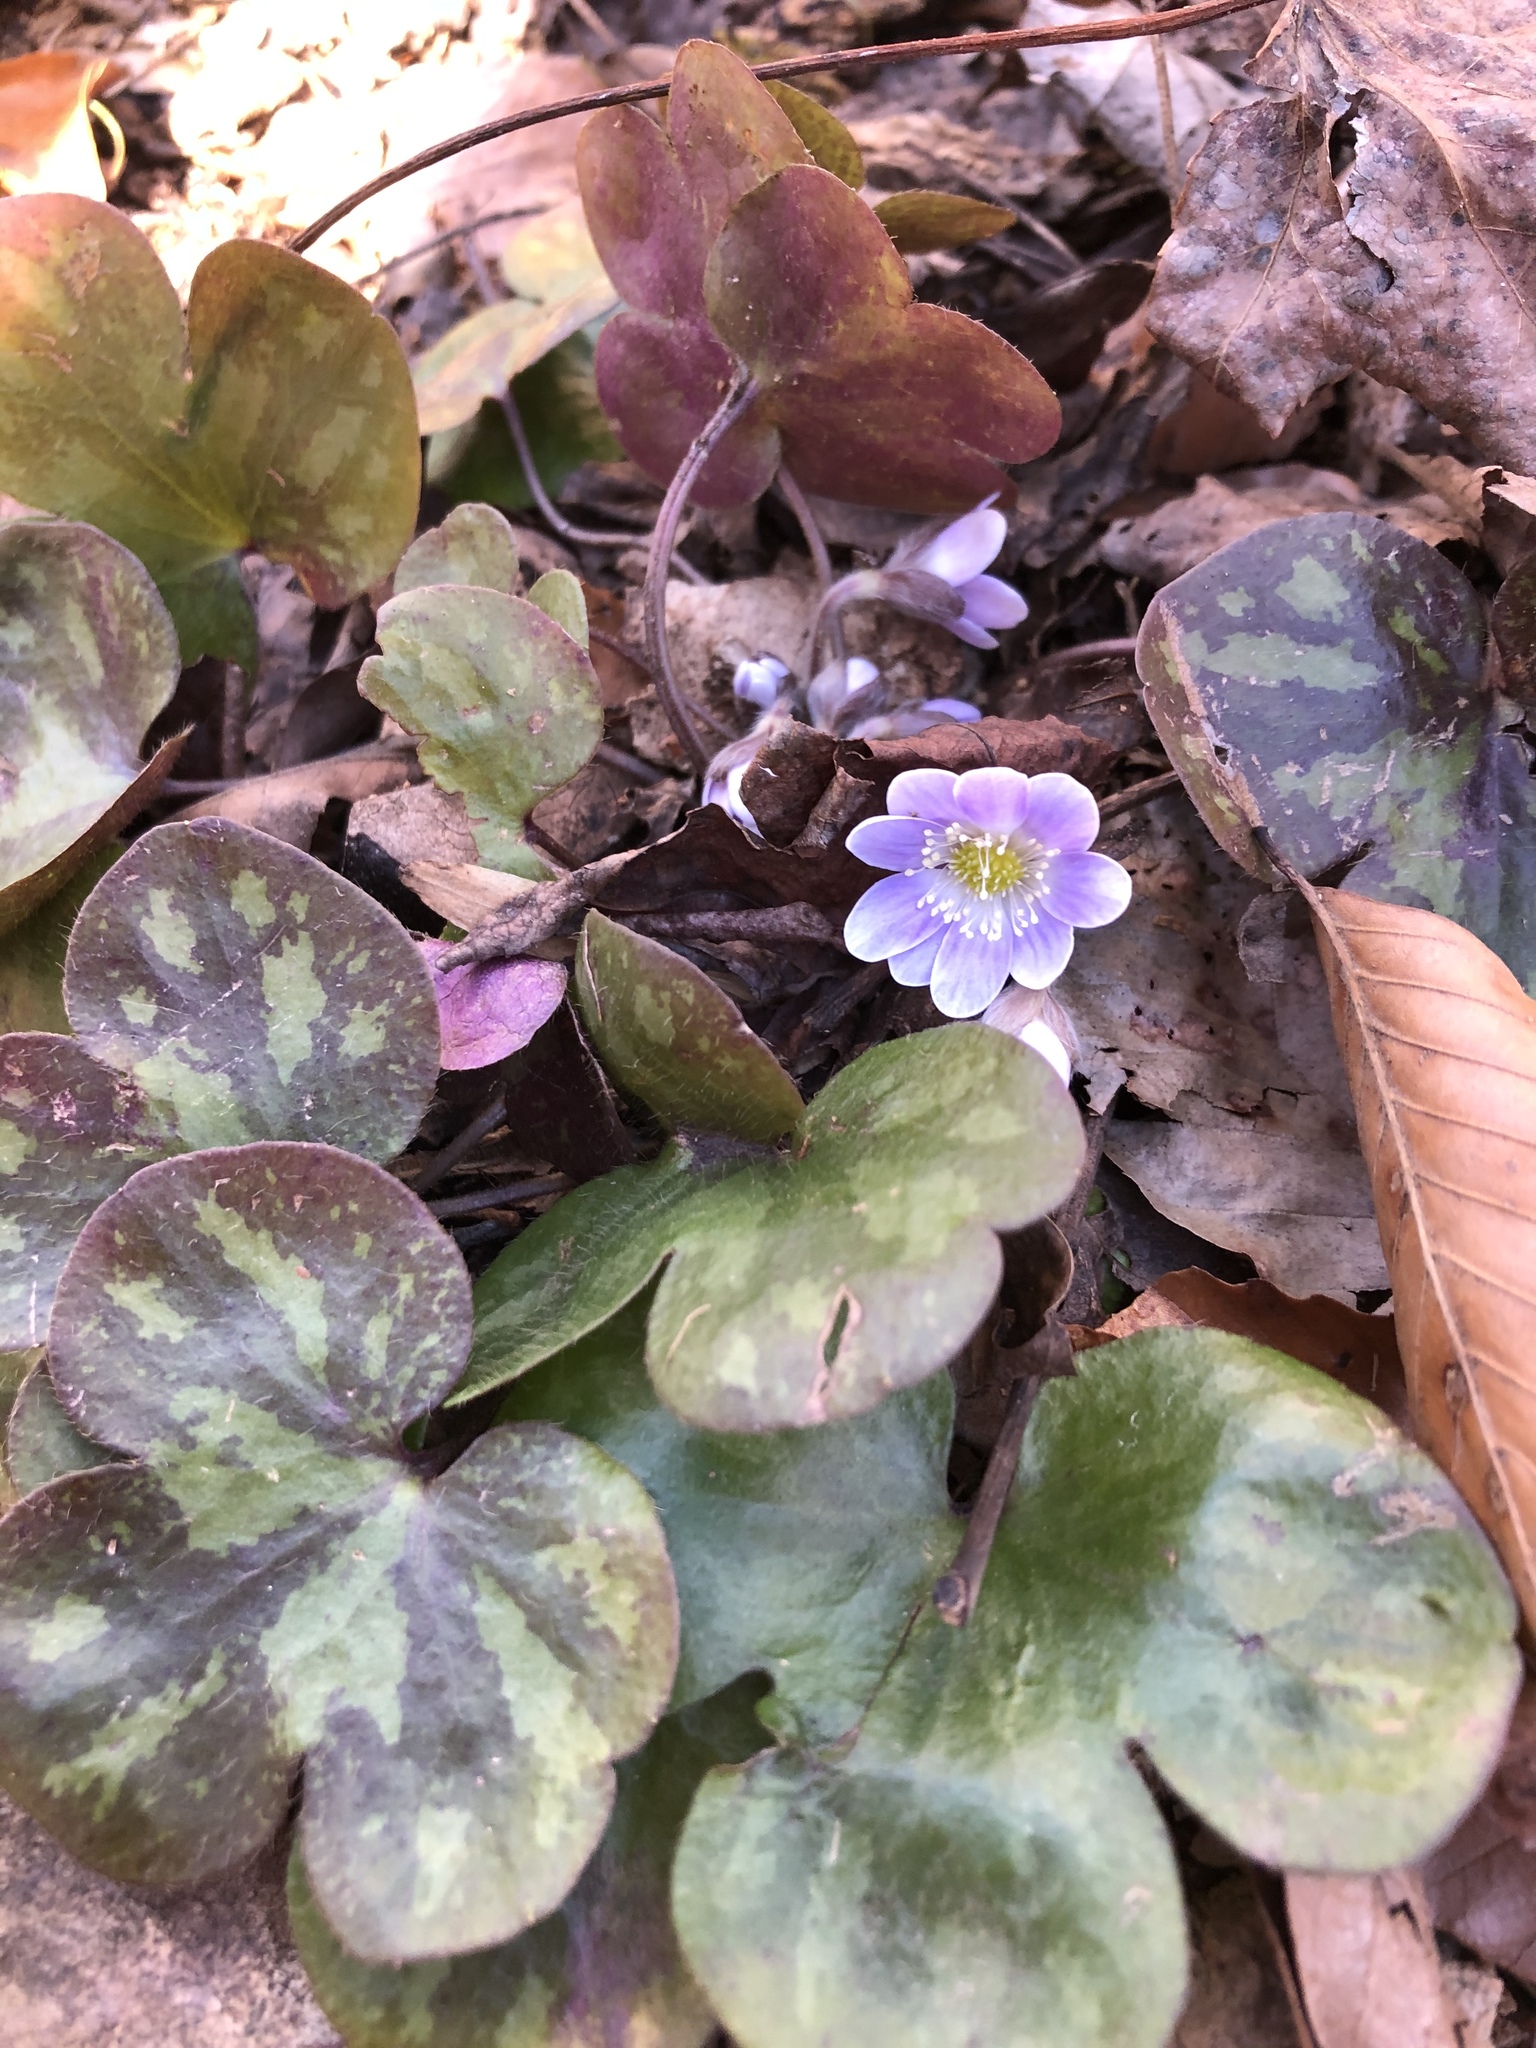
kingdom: Plantae
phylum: Tracheophyta
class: Magnoliopsida
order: Ranunculales
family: Ranunculaceae
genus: Hepatica
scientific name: Hepatica americana
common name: American hepatica
